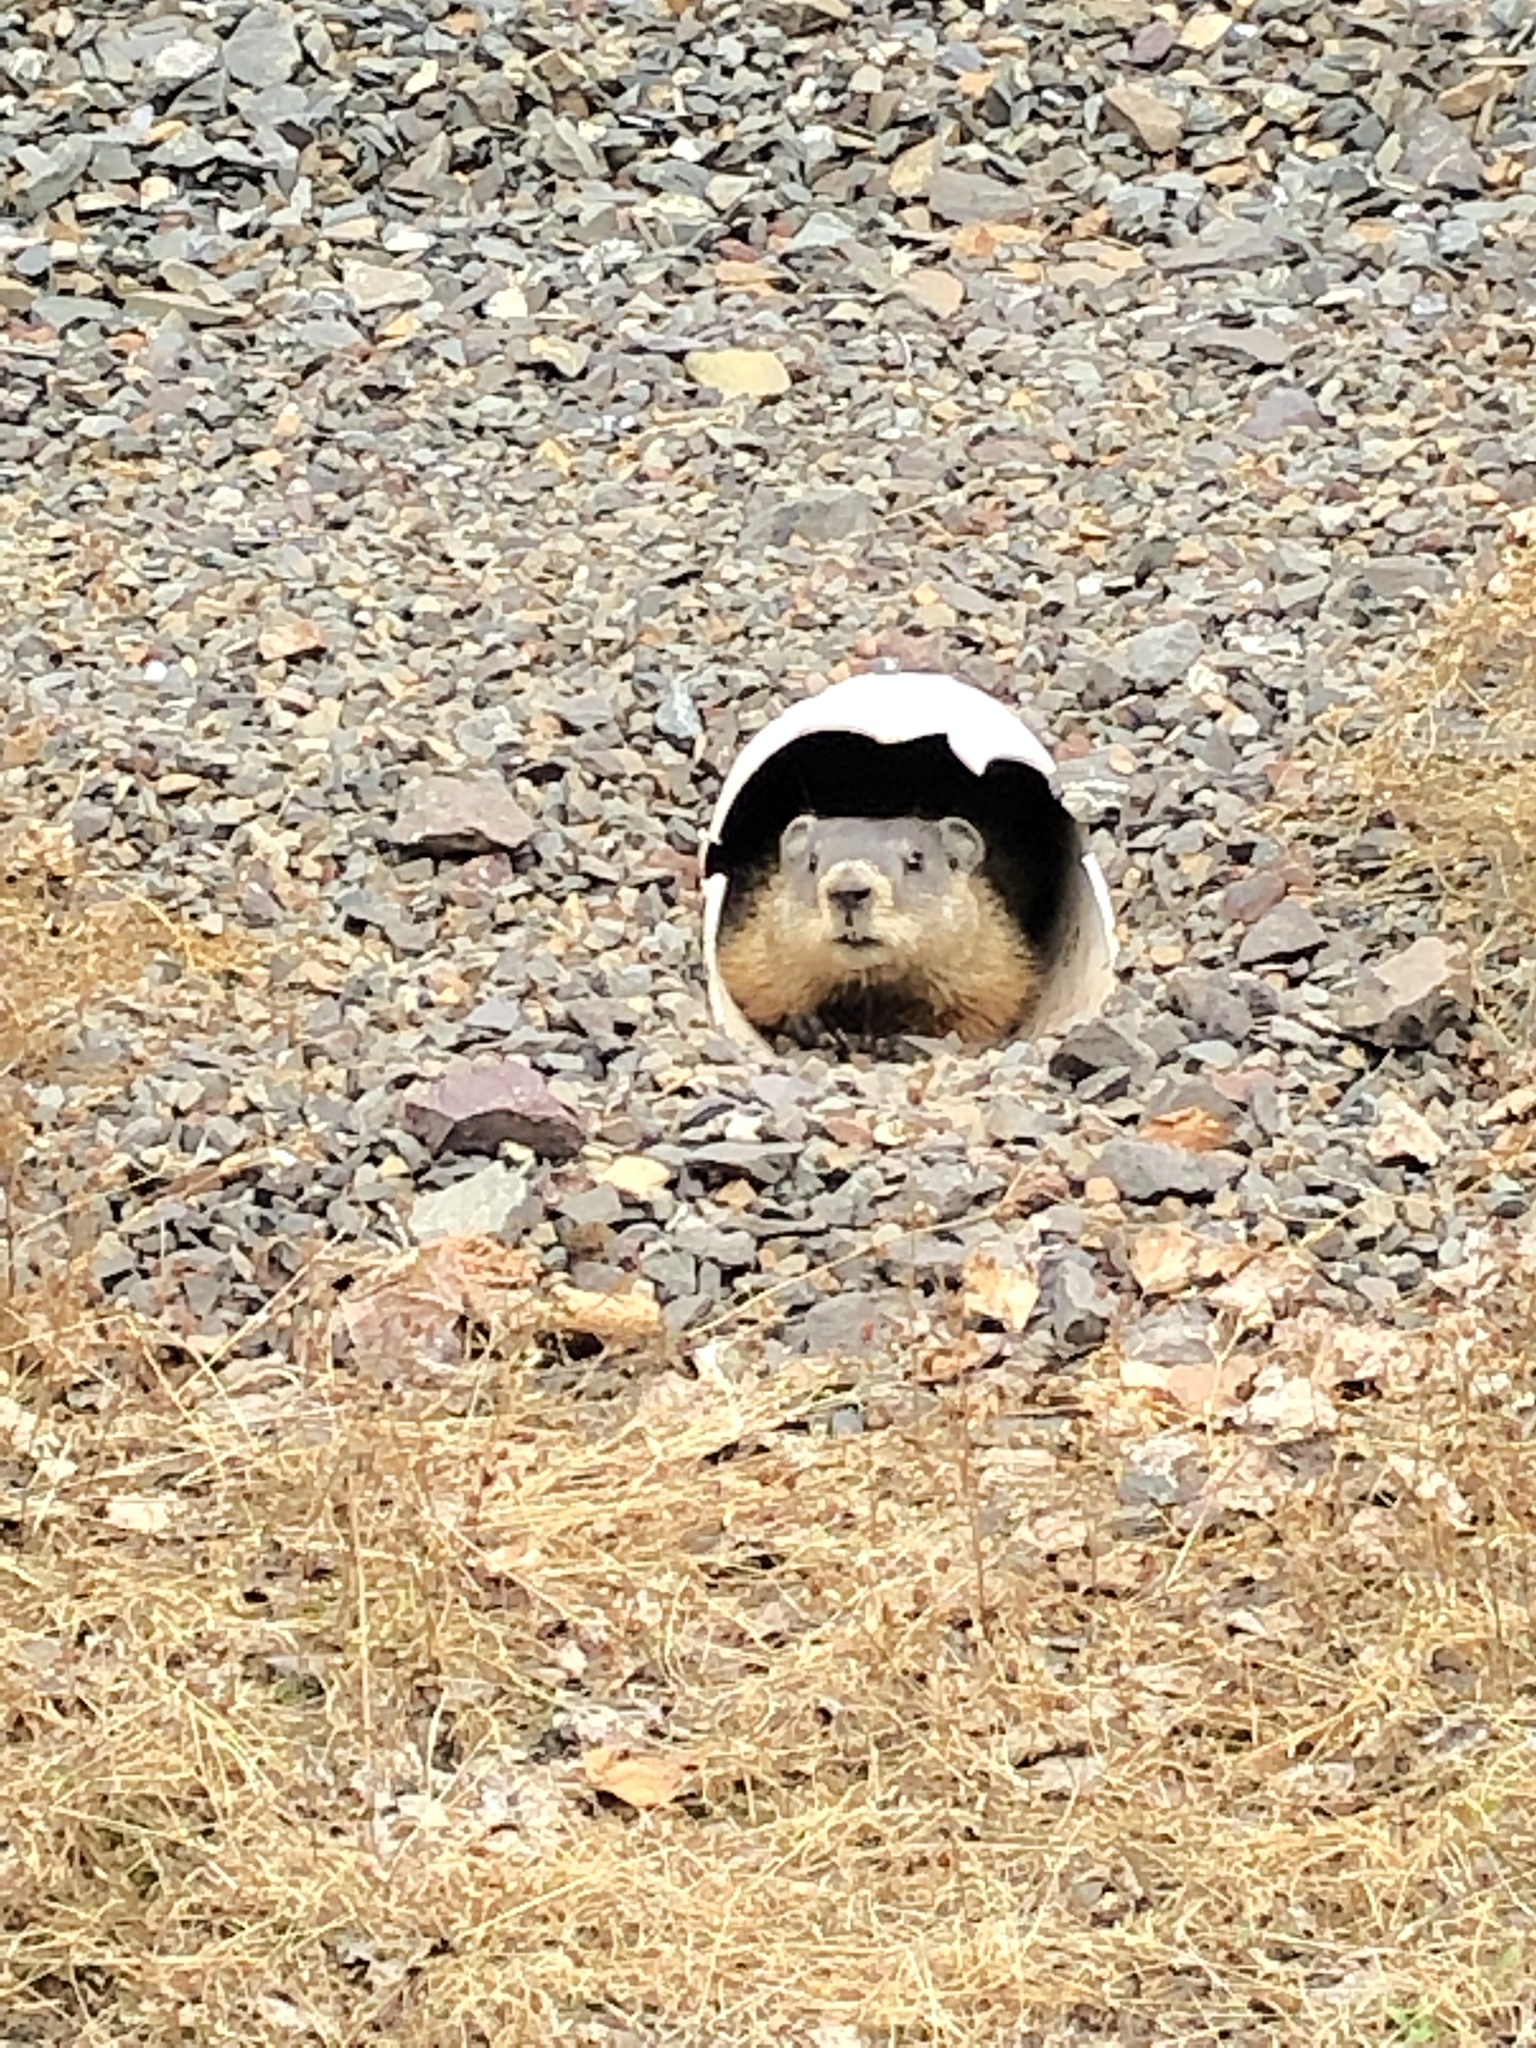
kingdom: Animalia
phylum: Chordata
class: Mammalia
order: Rodentia
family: Sciuridae
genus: Marmota
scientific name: Marmota monax
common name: Groundhog
